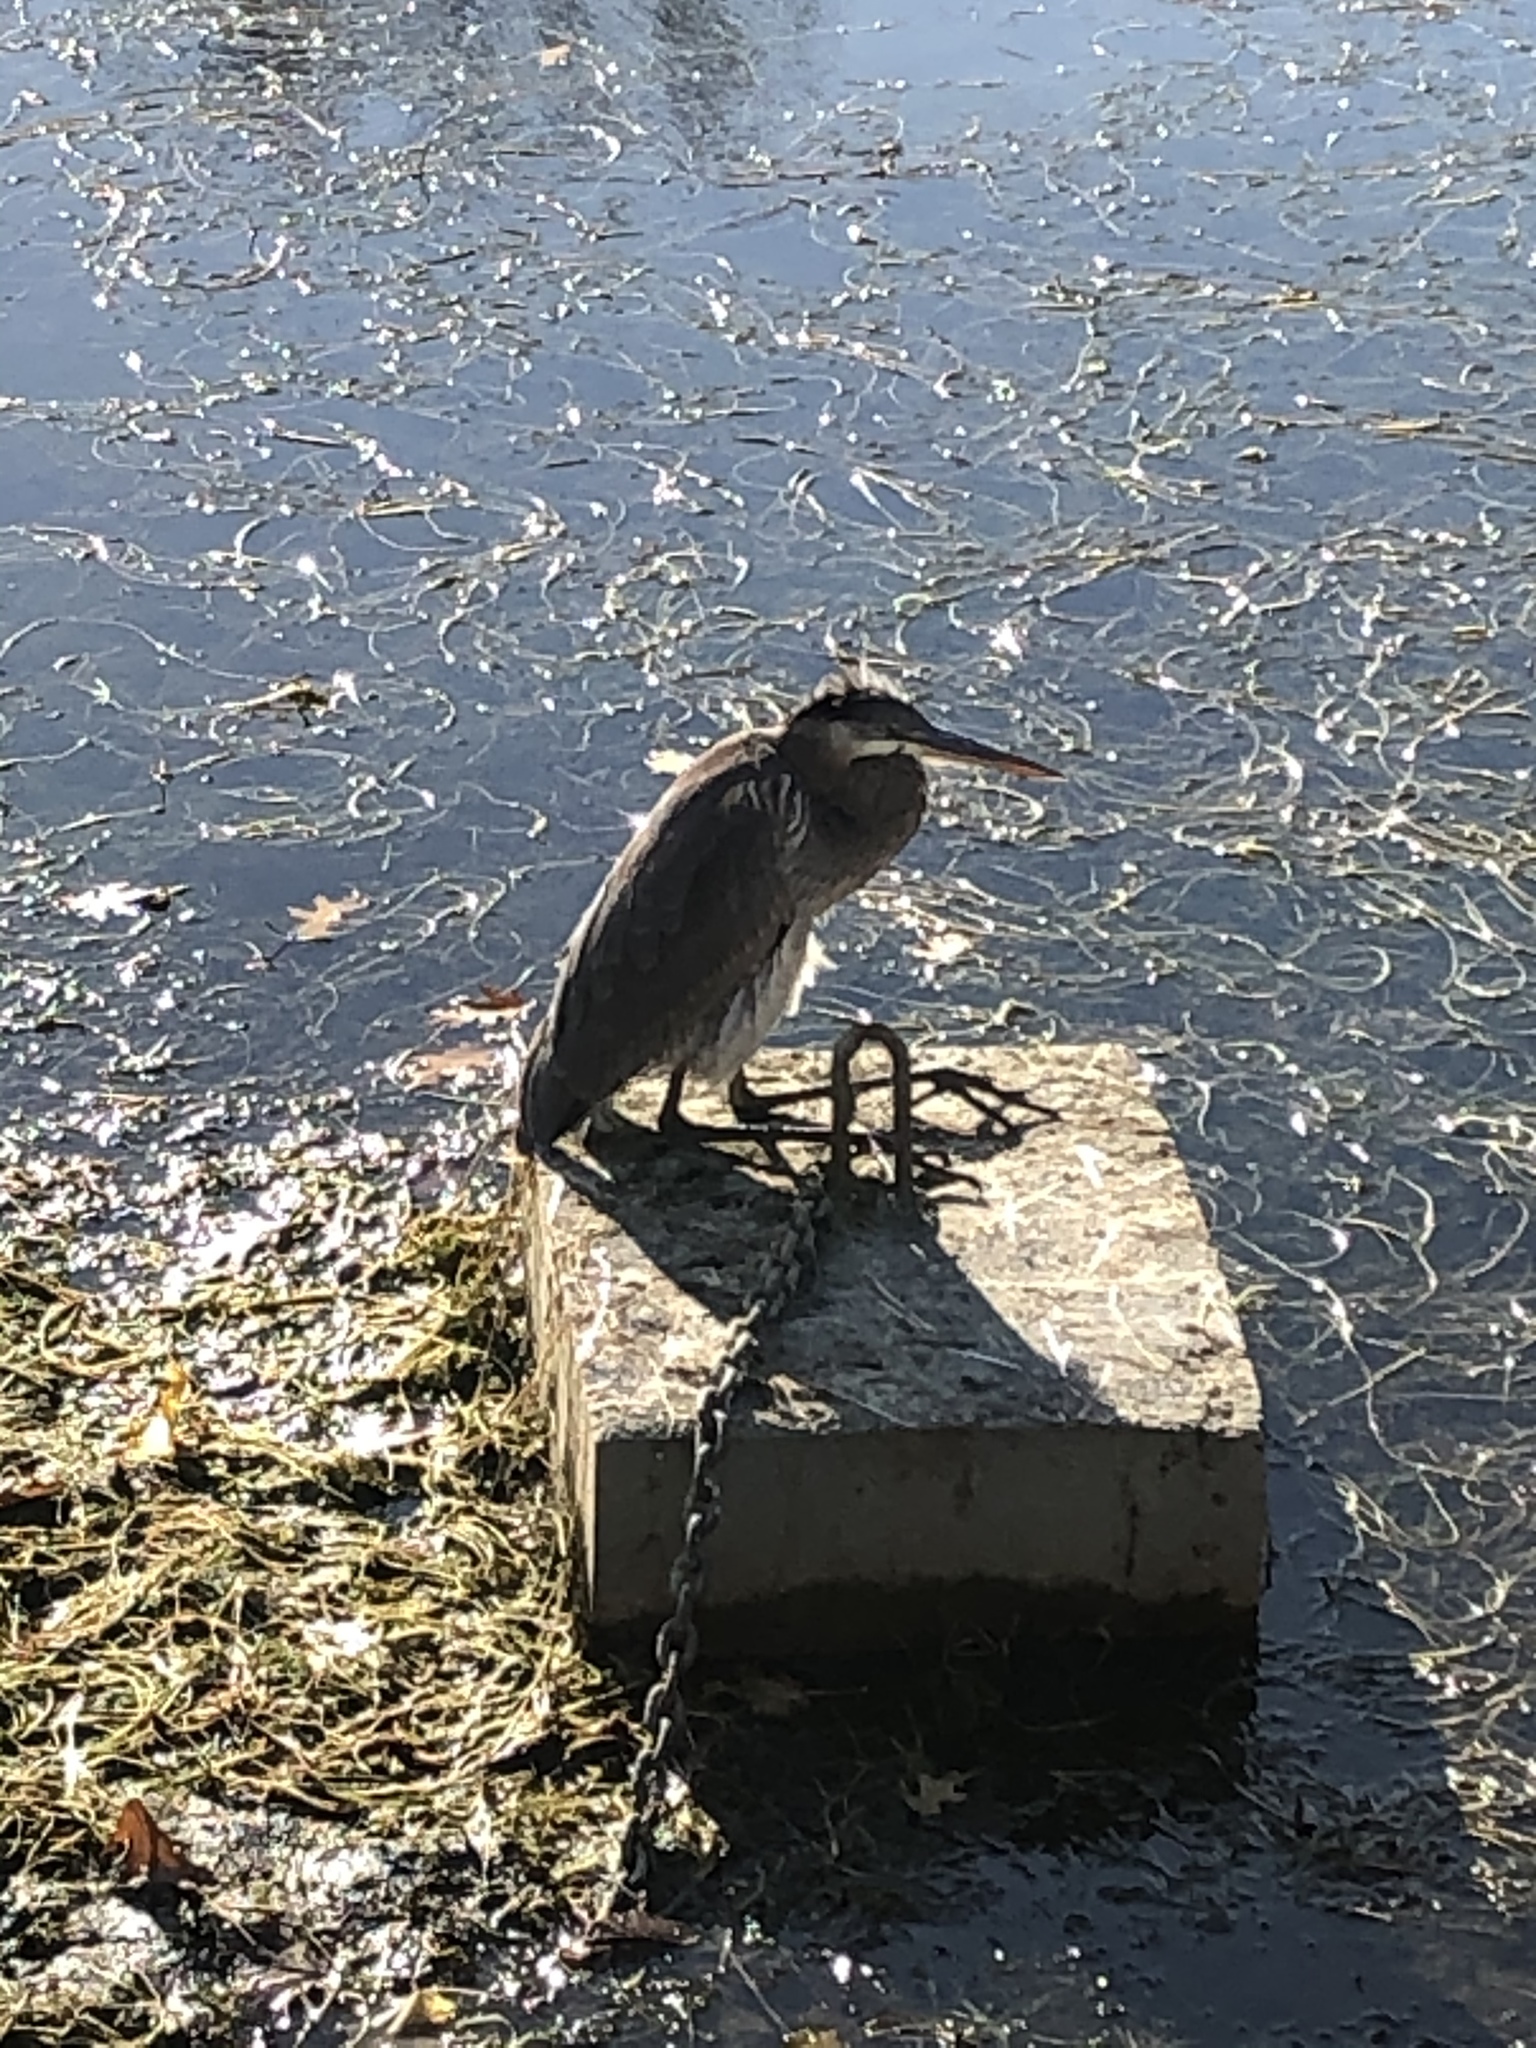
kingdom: Animalia
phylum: Chordata
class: Aves
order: Pelecaniformes
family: Ardeidae
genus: Ardea
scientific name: Ardea herodias
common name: Great blue heron
